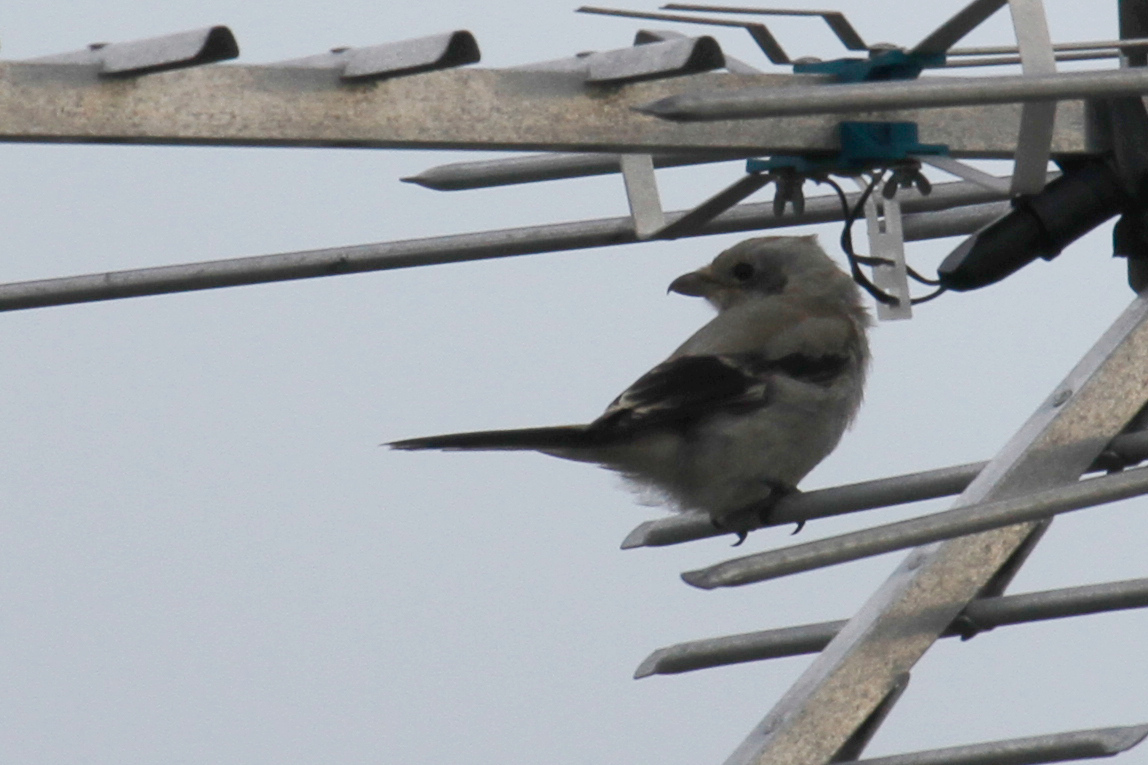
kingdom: Animalia
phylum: Chordata
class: Aves
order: Passeriformes
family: Laniidae
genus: Lanius
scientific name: Lanius borealis
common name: Northern shrike
